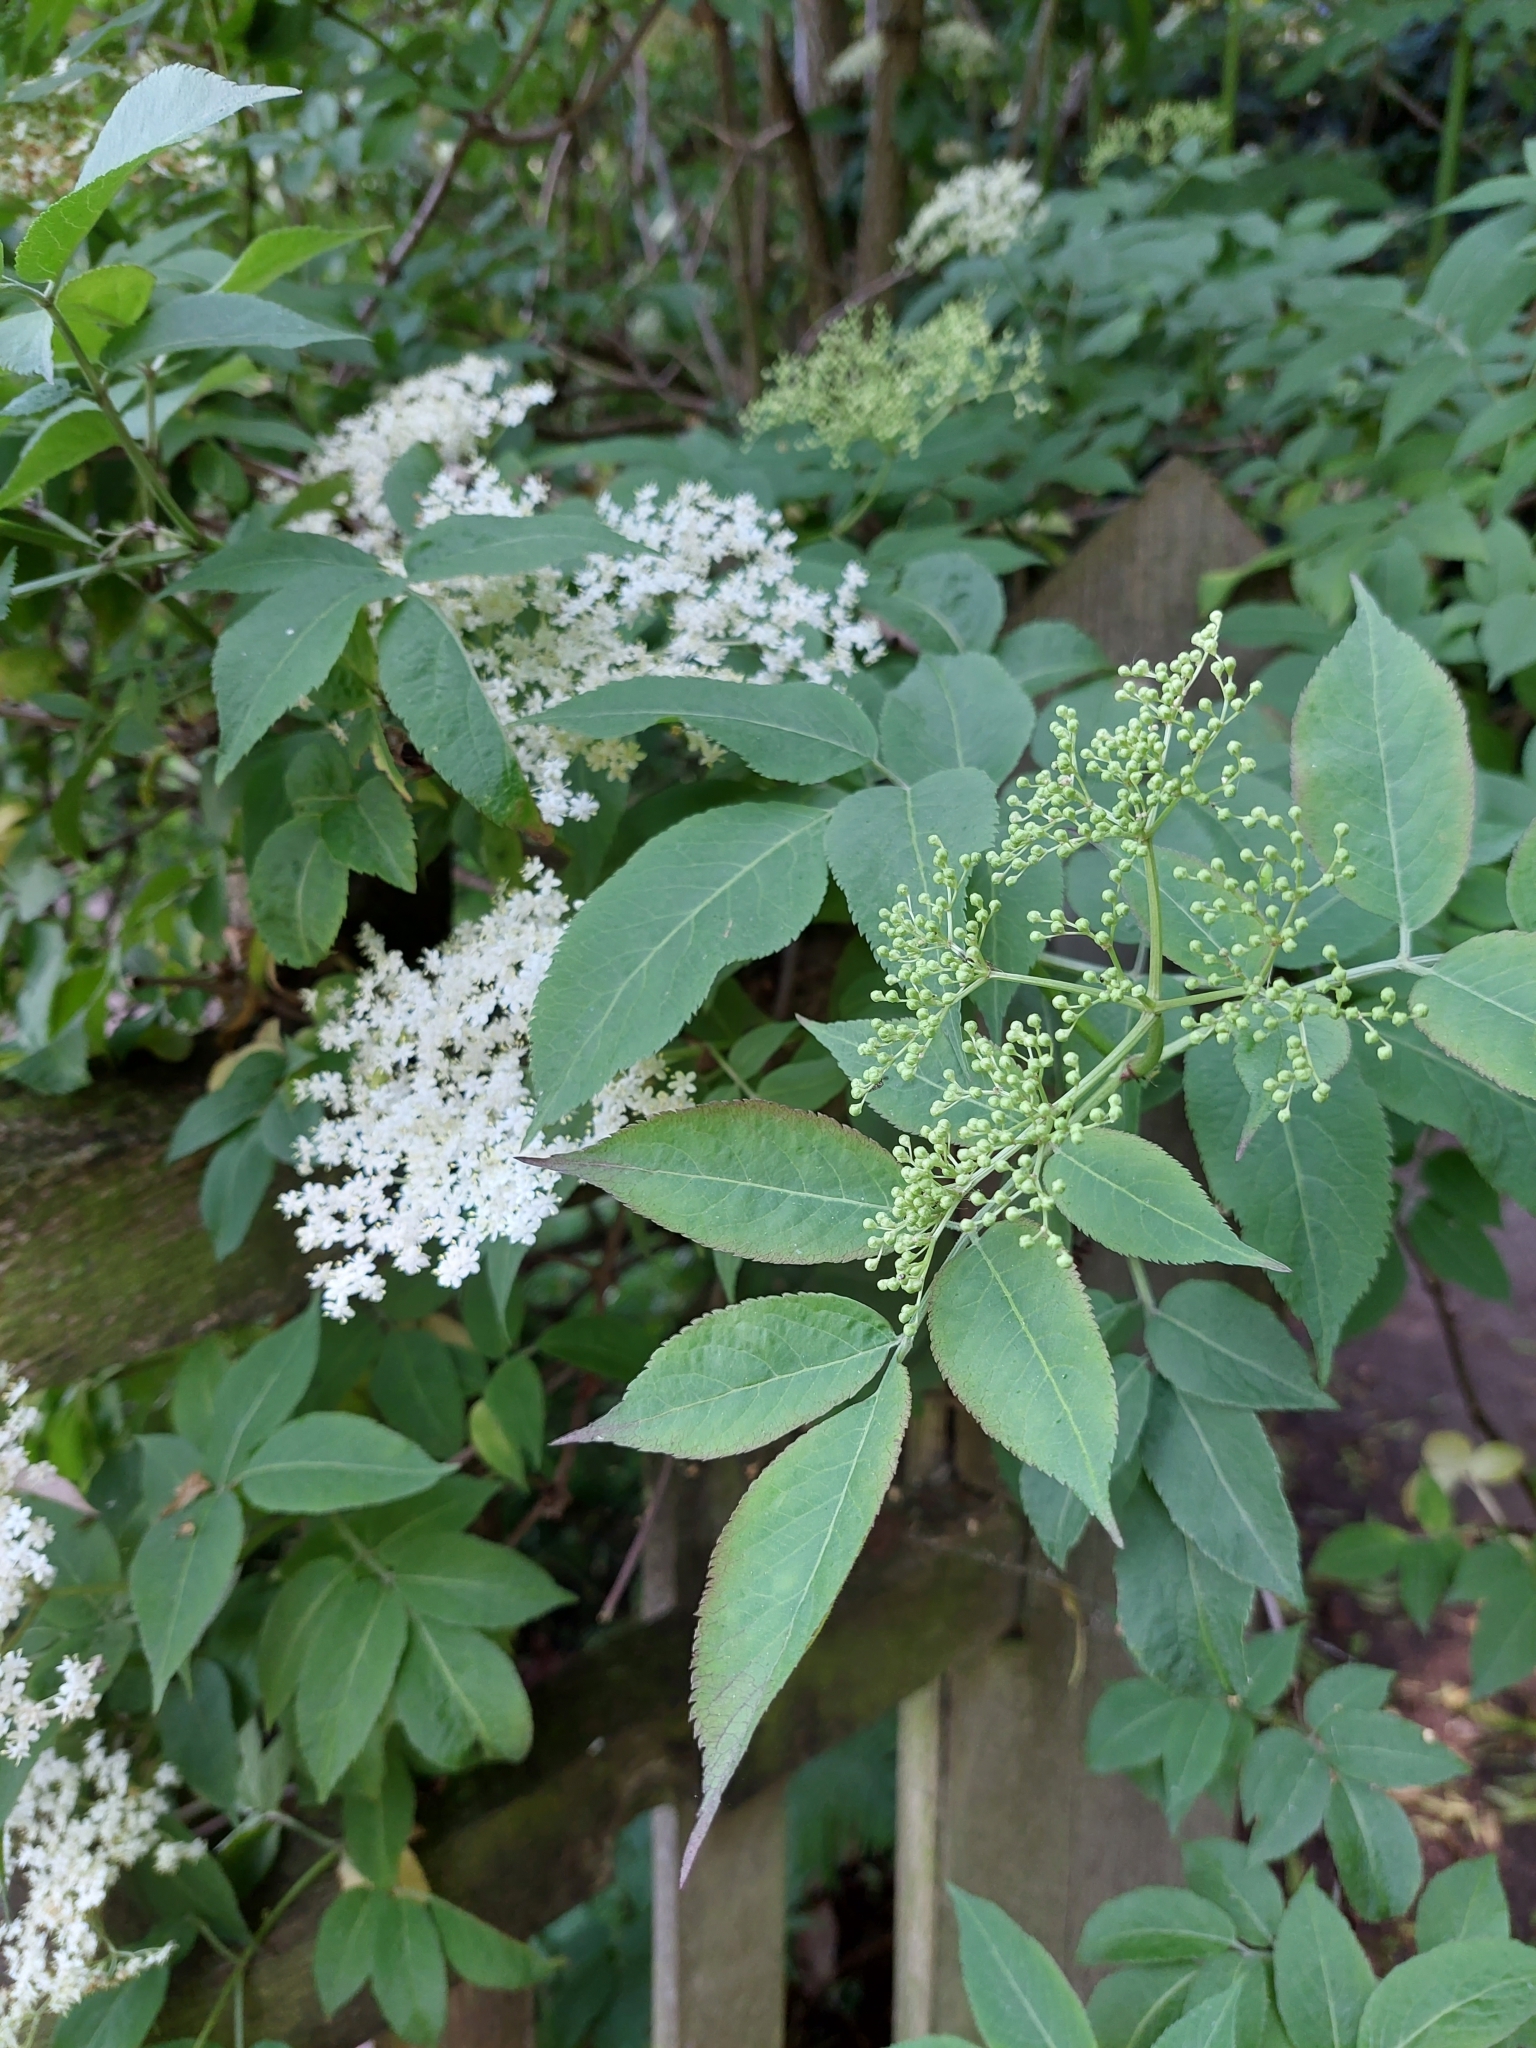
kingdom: Plantae
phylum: Tracheophyta
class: Magnoliopsida
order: Dipsacales
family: Viburnaceae
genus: Sambucus
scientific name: Sambucus nigra
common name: Elder
